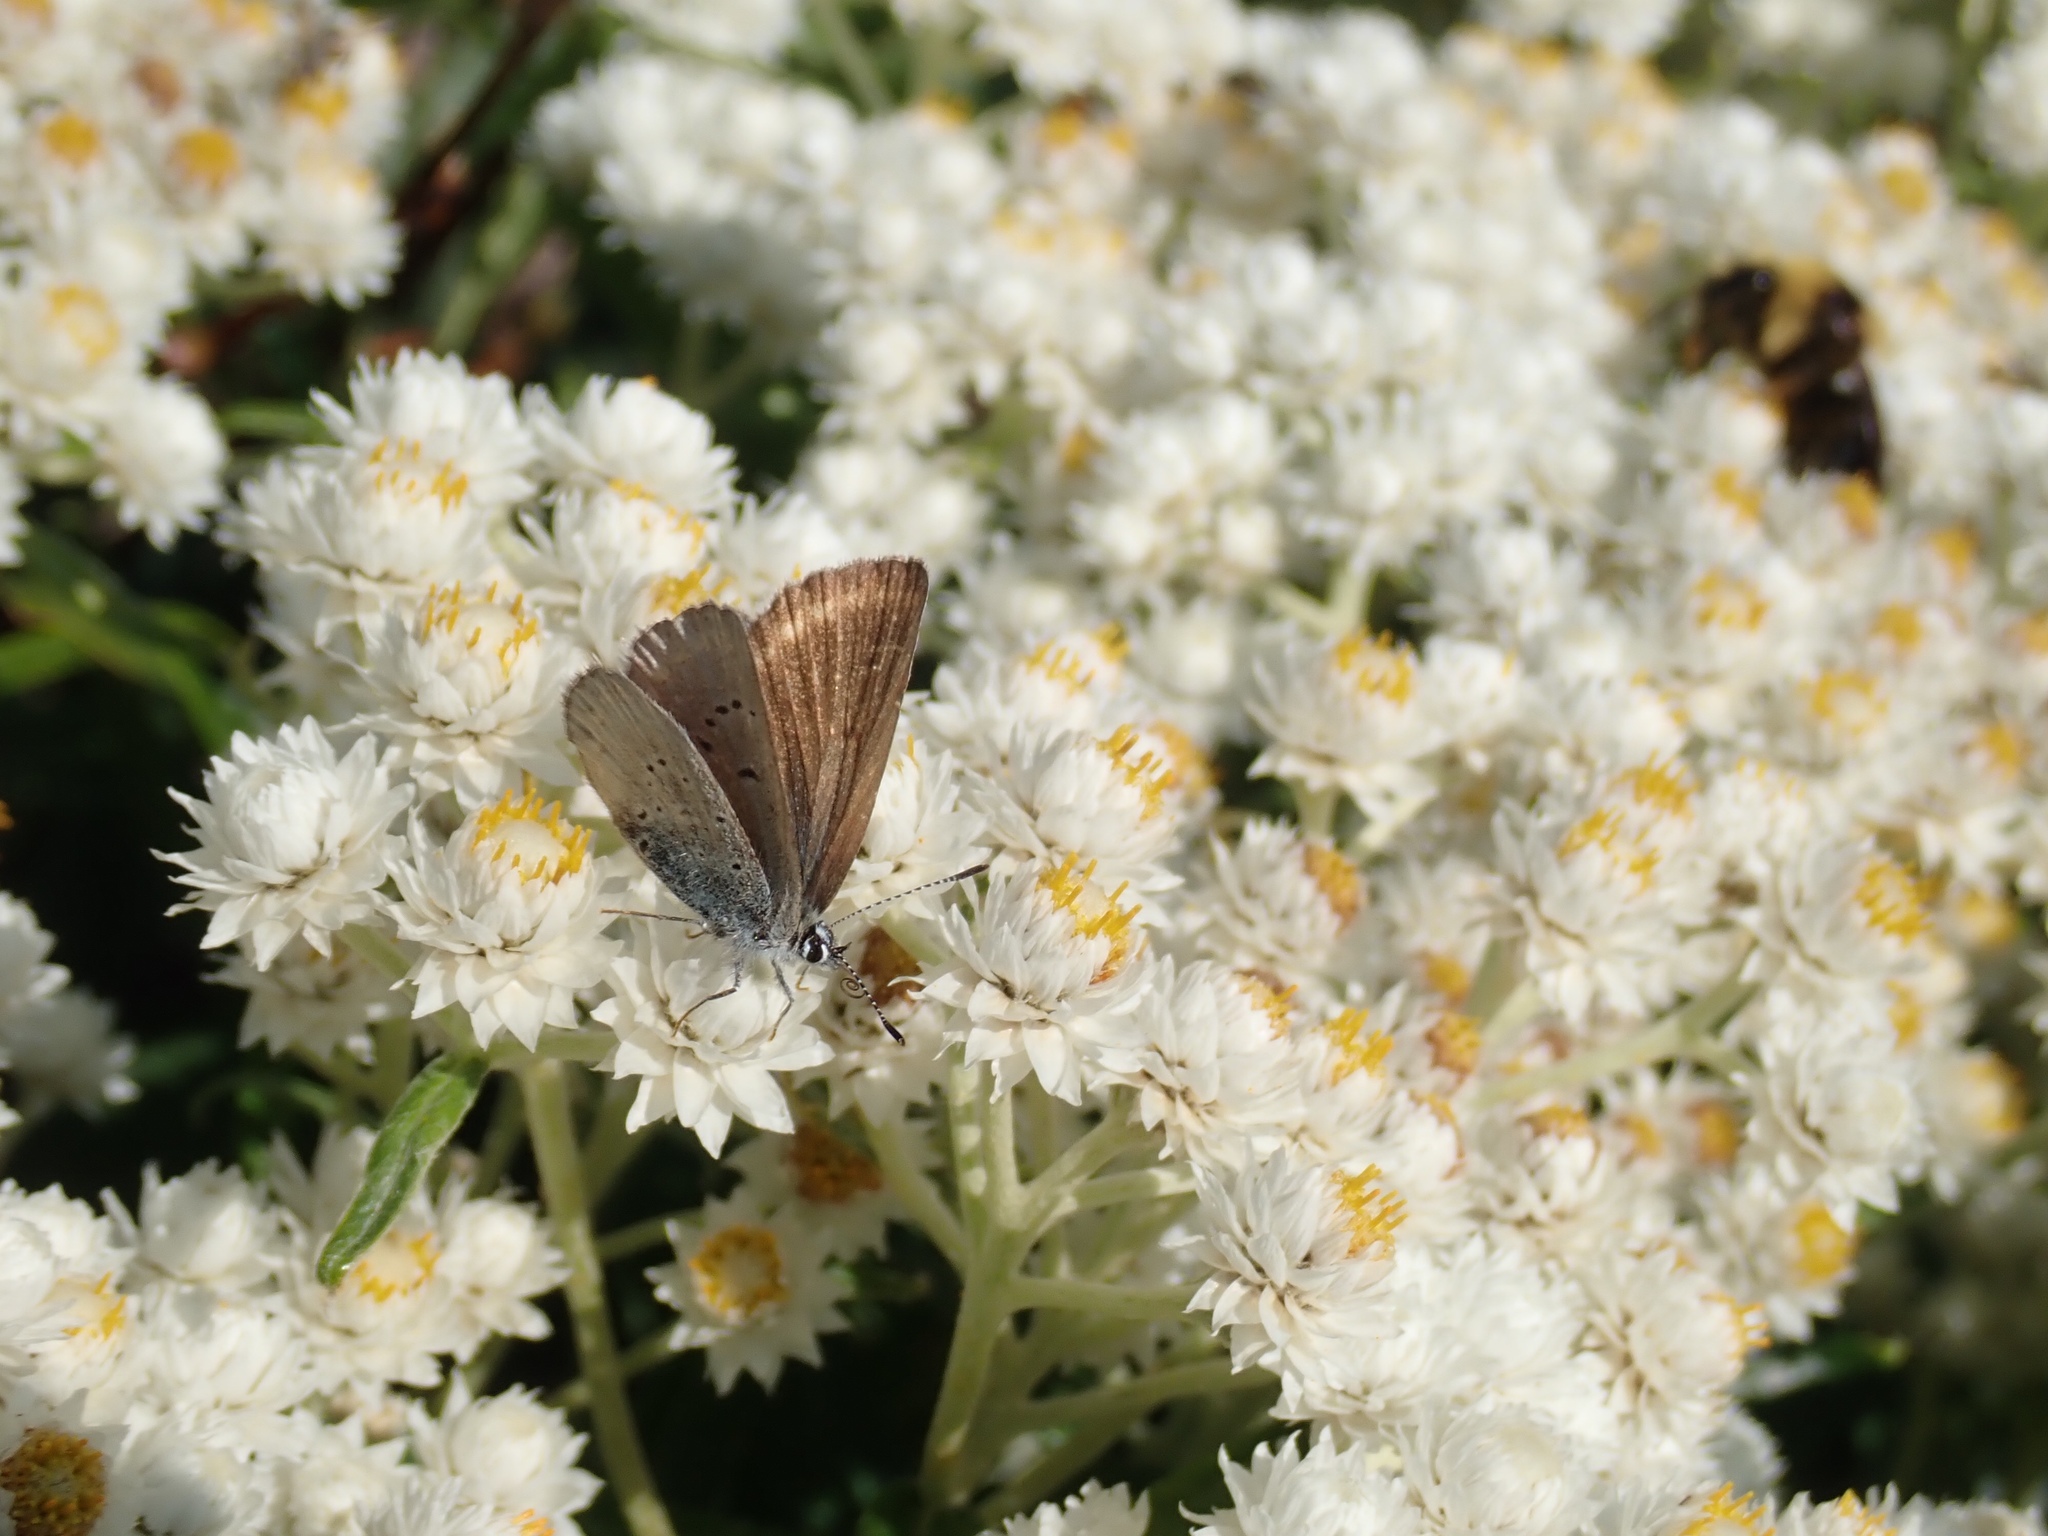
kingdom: Animalia
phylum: Arthropoda
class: Insecta
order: Lepidoptera
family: Lycaenidae
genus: Lycaeides
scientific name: Lycaeides anna
